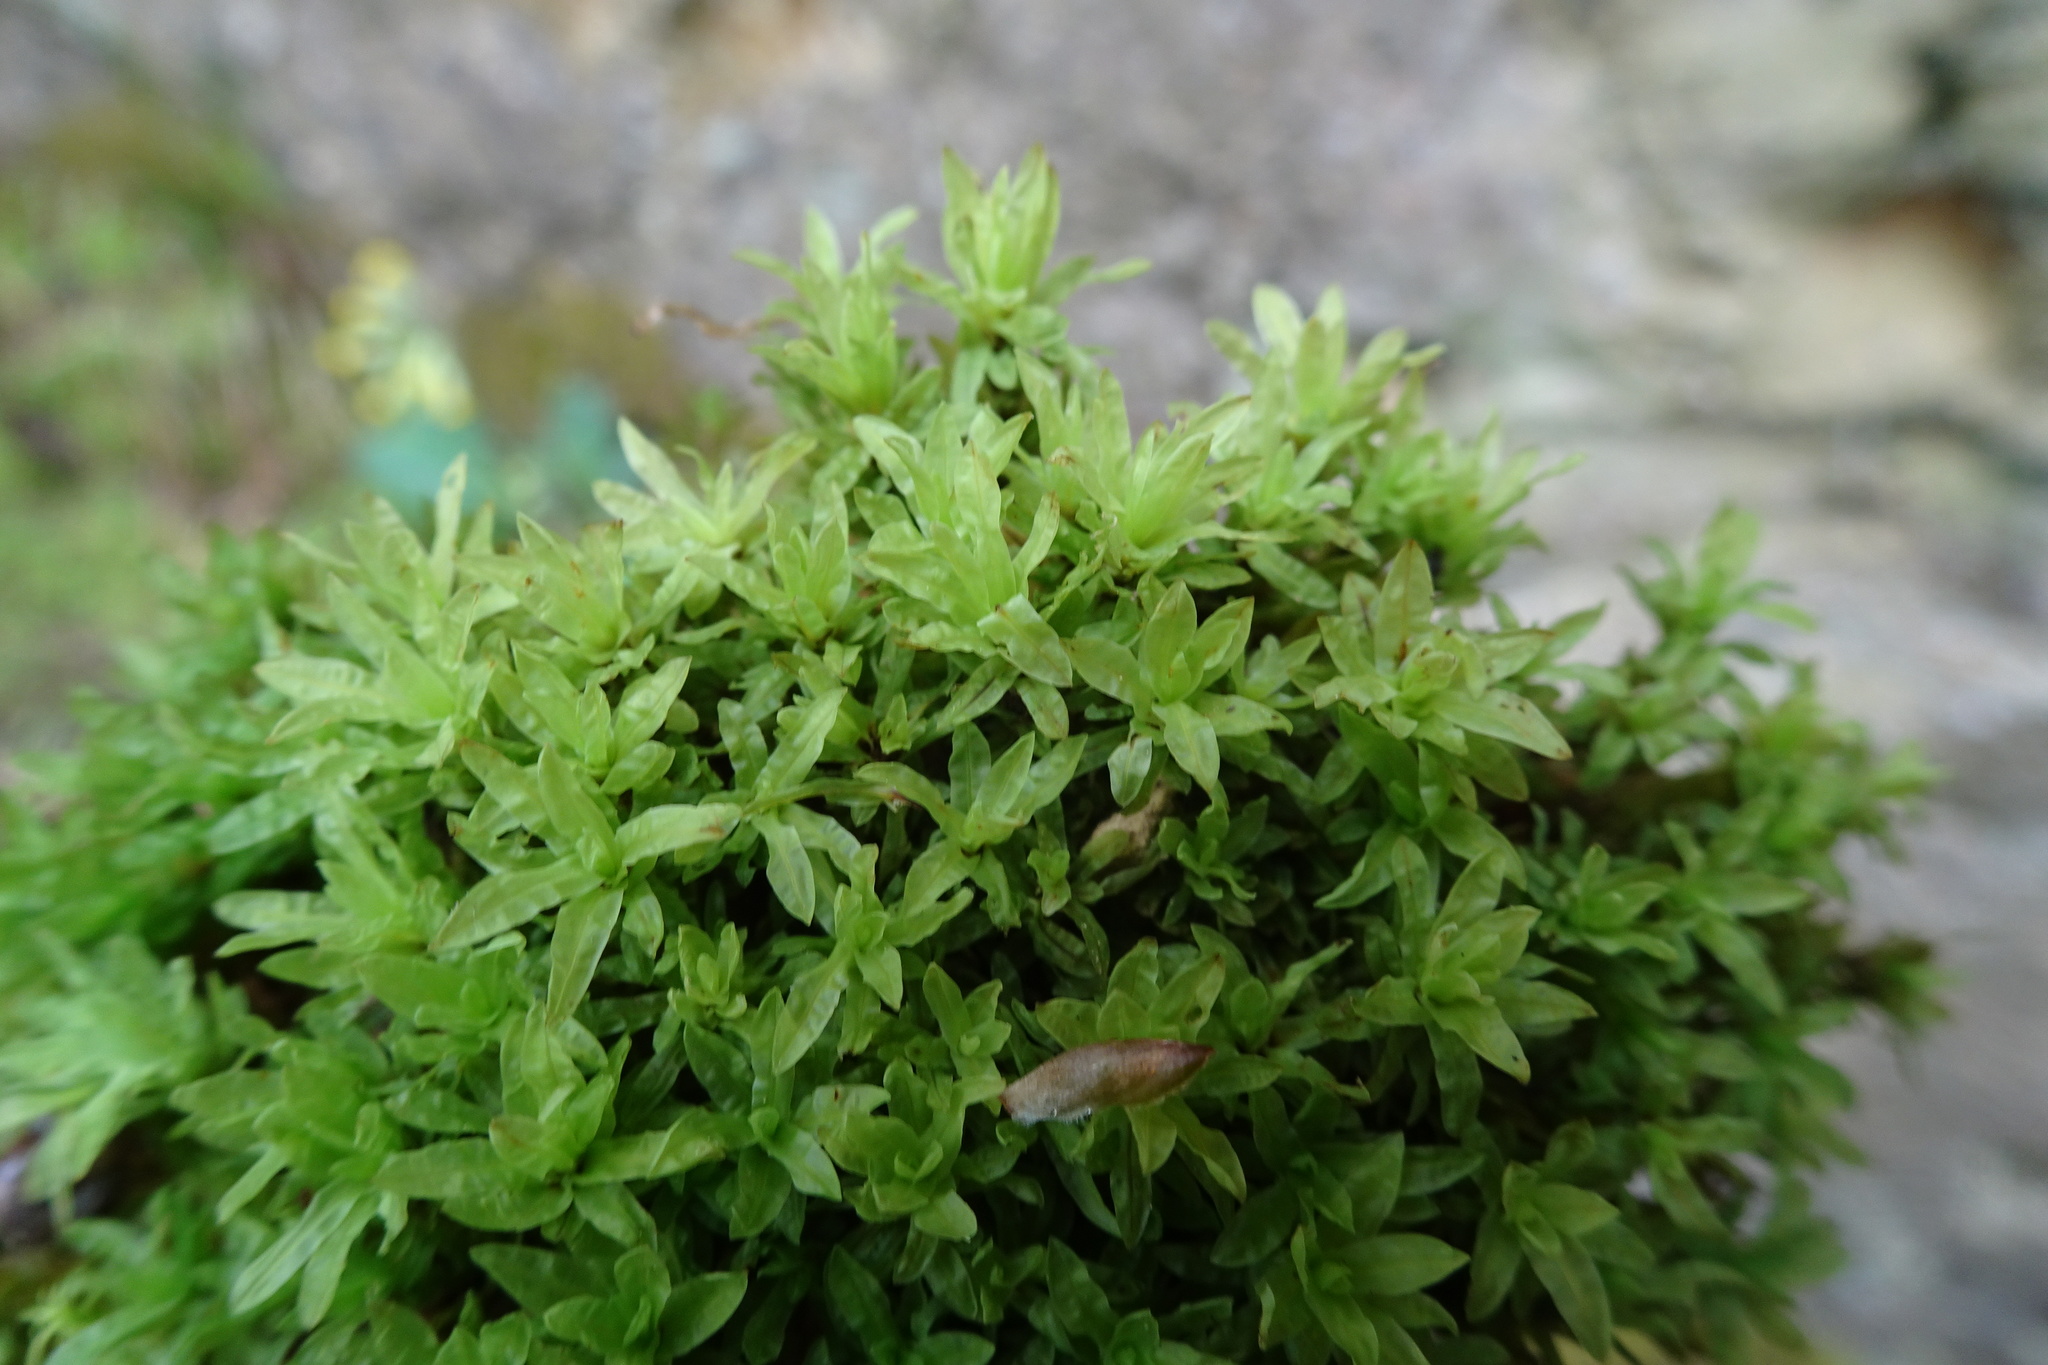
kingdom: Plantae
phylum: Bryophyta
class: Bryopsida
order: Encalyptales
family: Encalyptaceae
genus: Encalypta
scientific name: Encalypta streptocarpa
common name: Spiral extinguisher-moss
